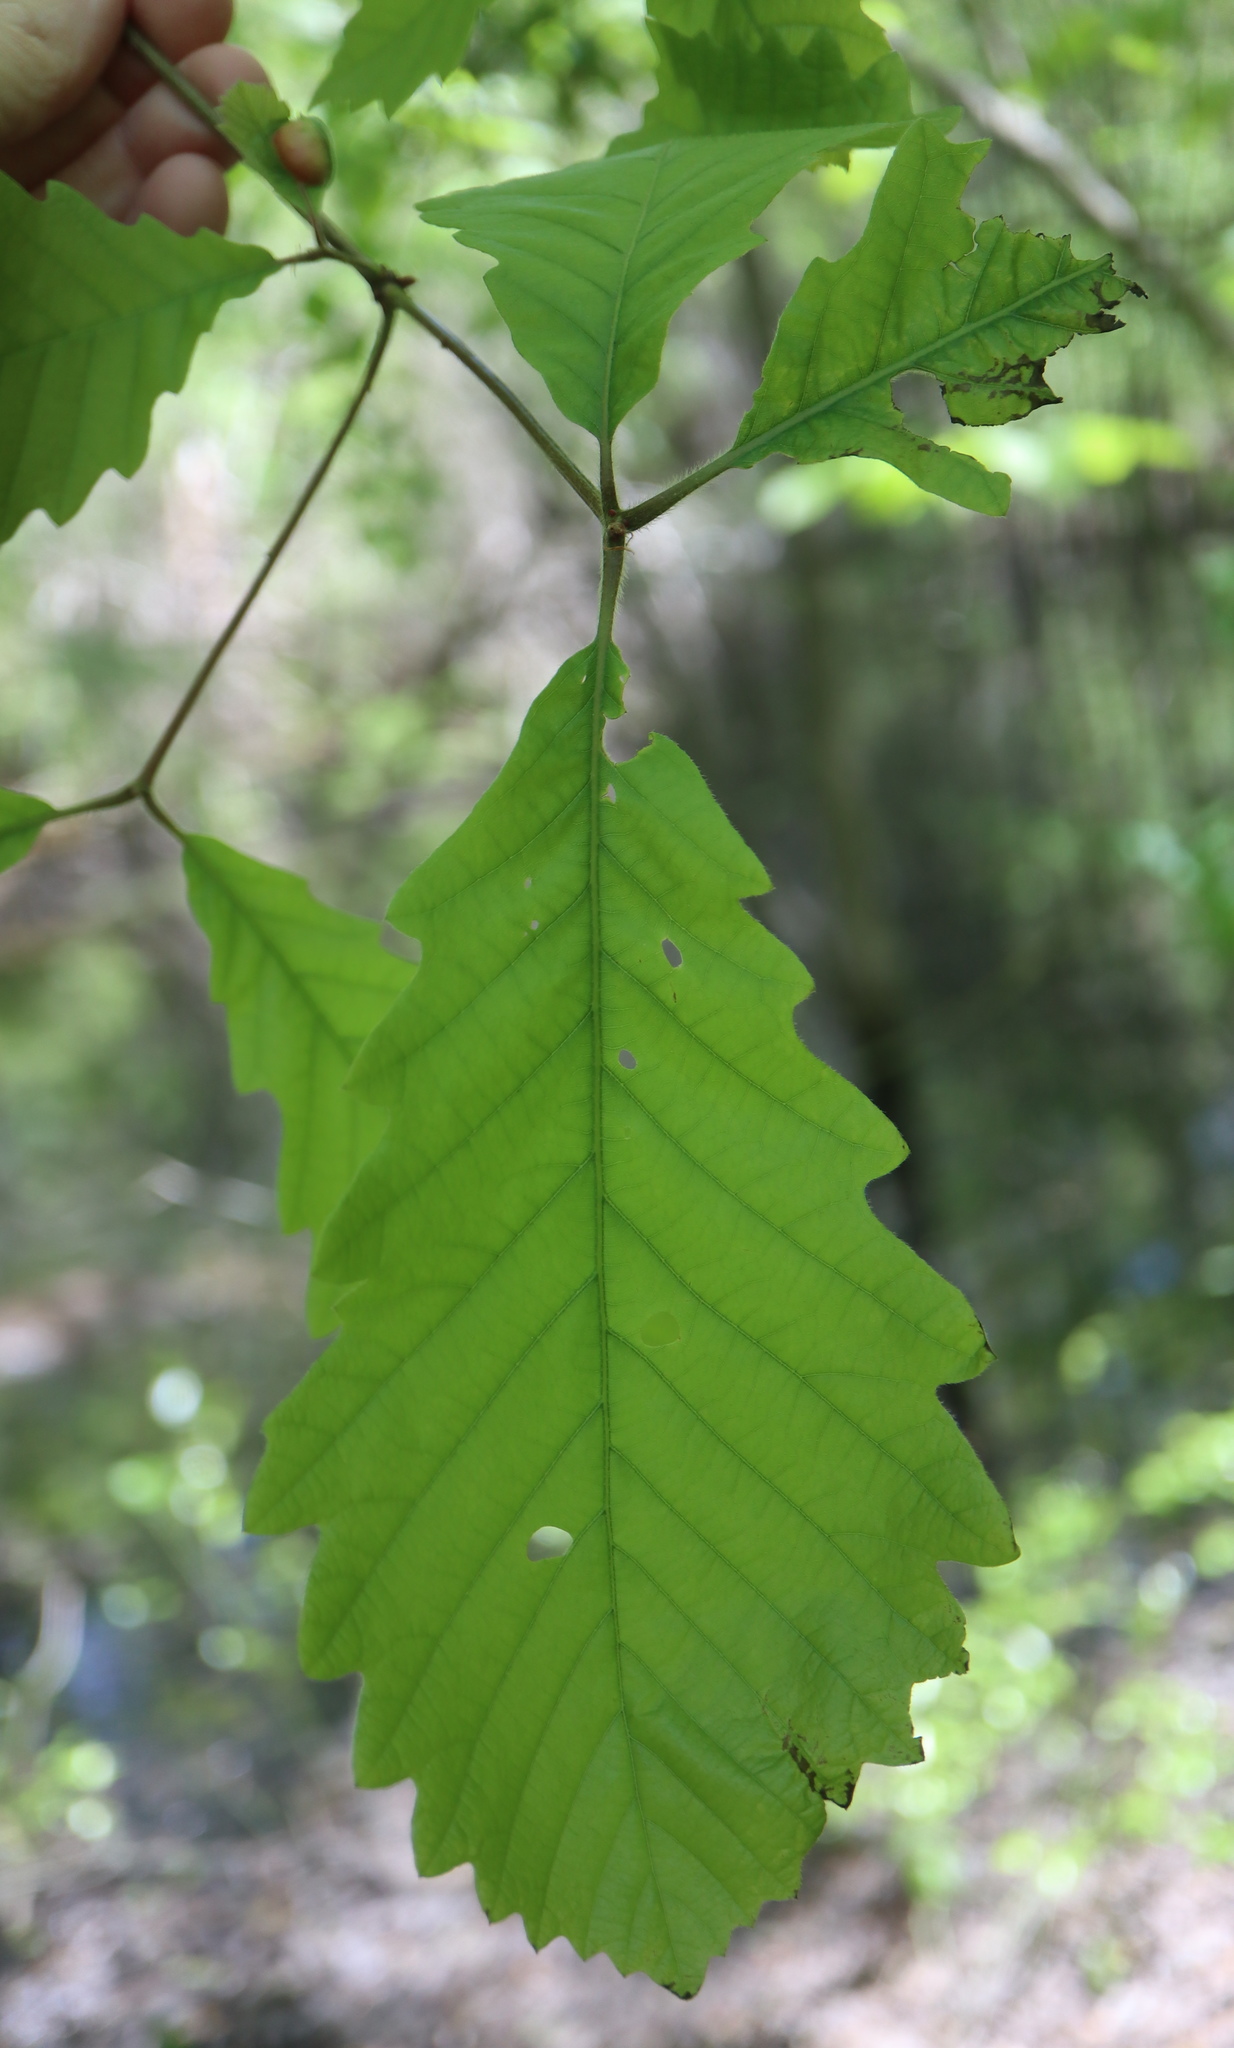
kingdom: Plantae
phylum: Tracheophyta
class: Magnoliopsida
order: Fagales
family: Fagaceae
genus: Quercus
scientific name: Quercus michauxii
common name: Swamp chestnut oak
